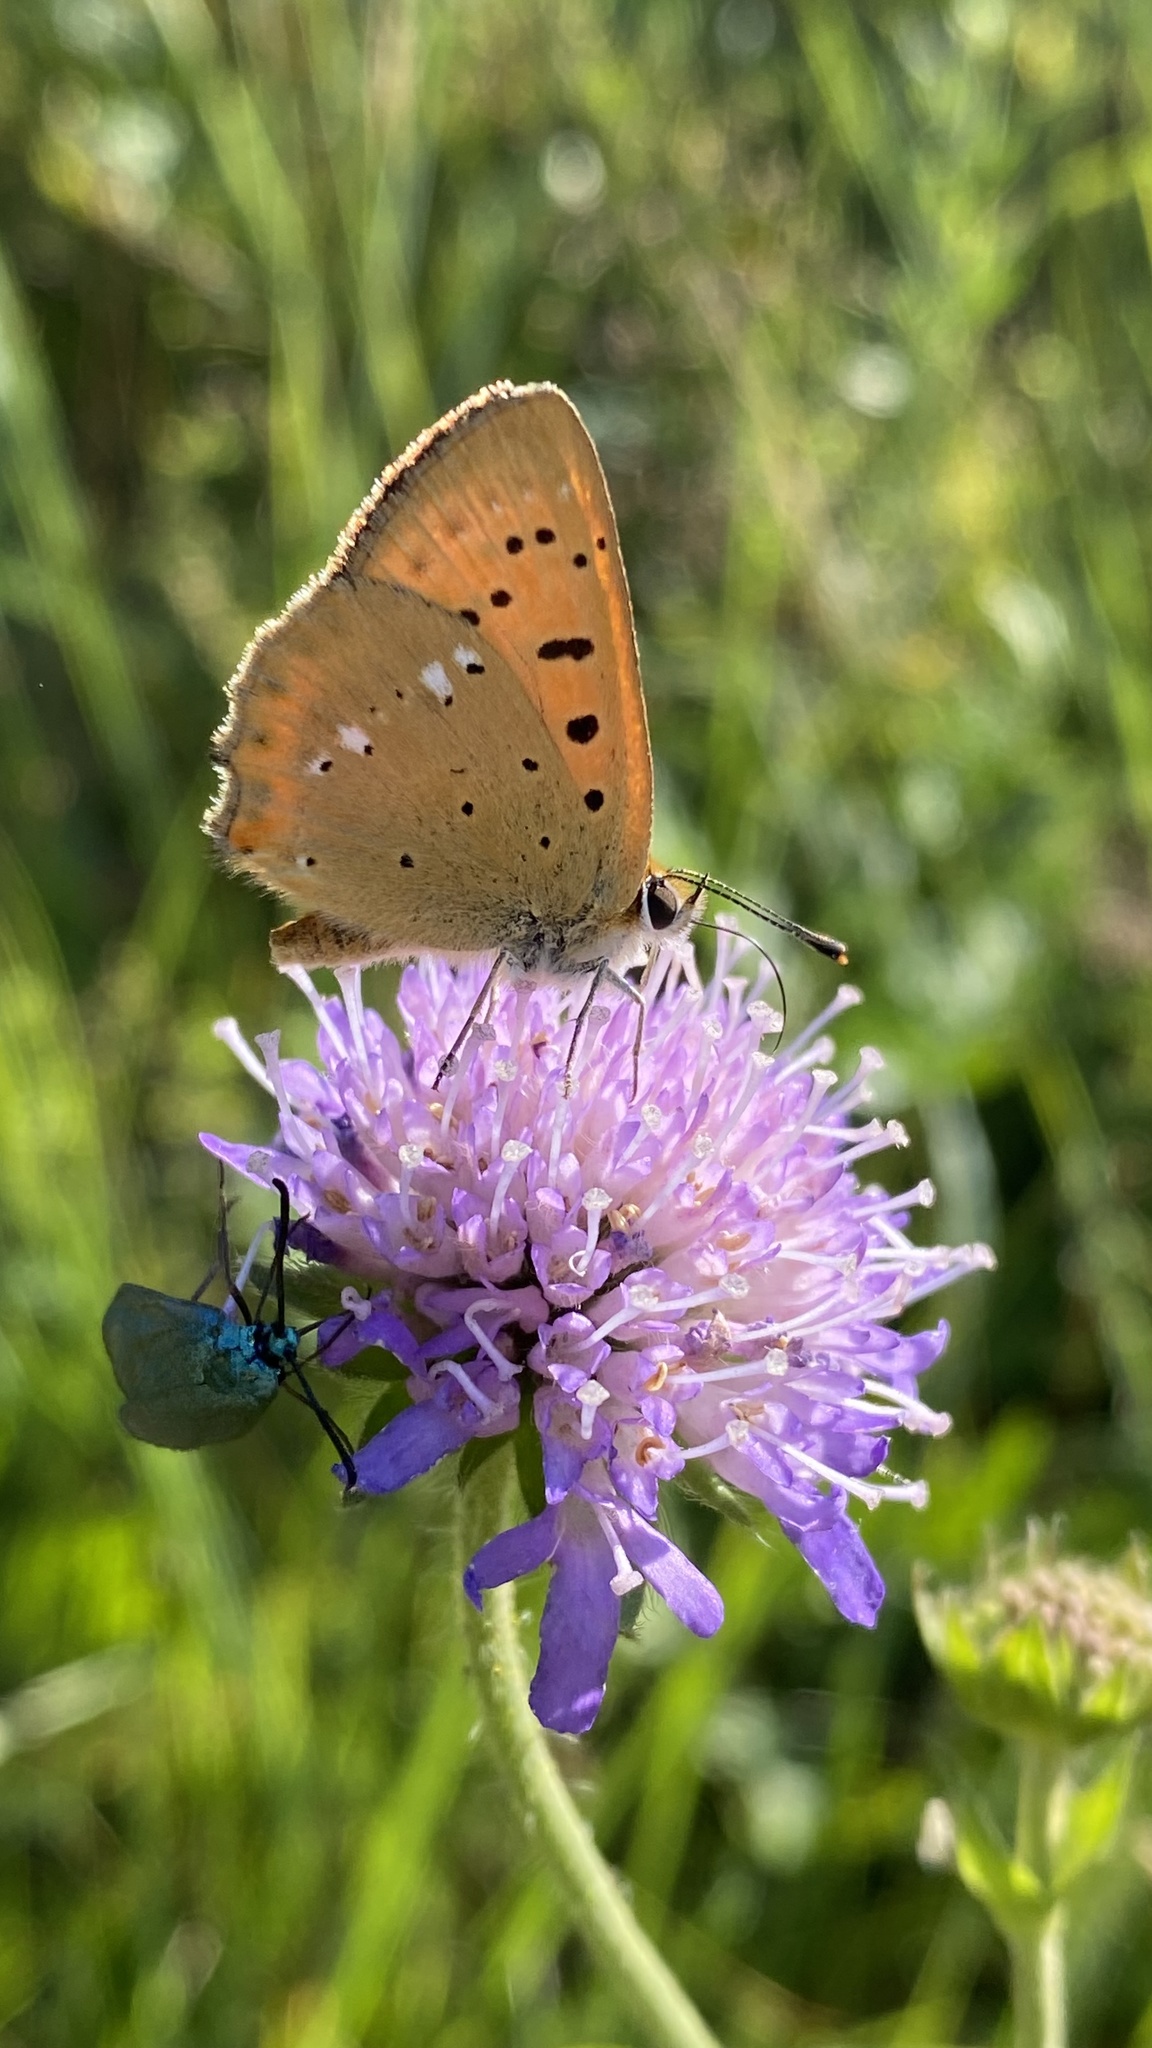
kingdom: Animalia
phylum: Arthropoda
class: Insecta
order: Lepidoptera
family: Lycaenidae
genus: Lycaena
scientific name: Lycaena virgaureae
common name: Scarce copper
